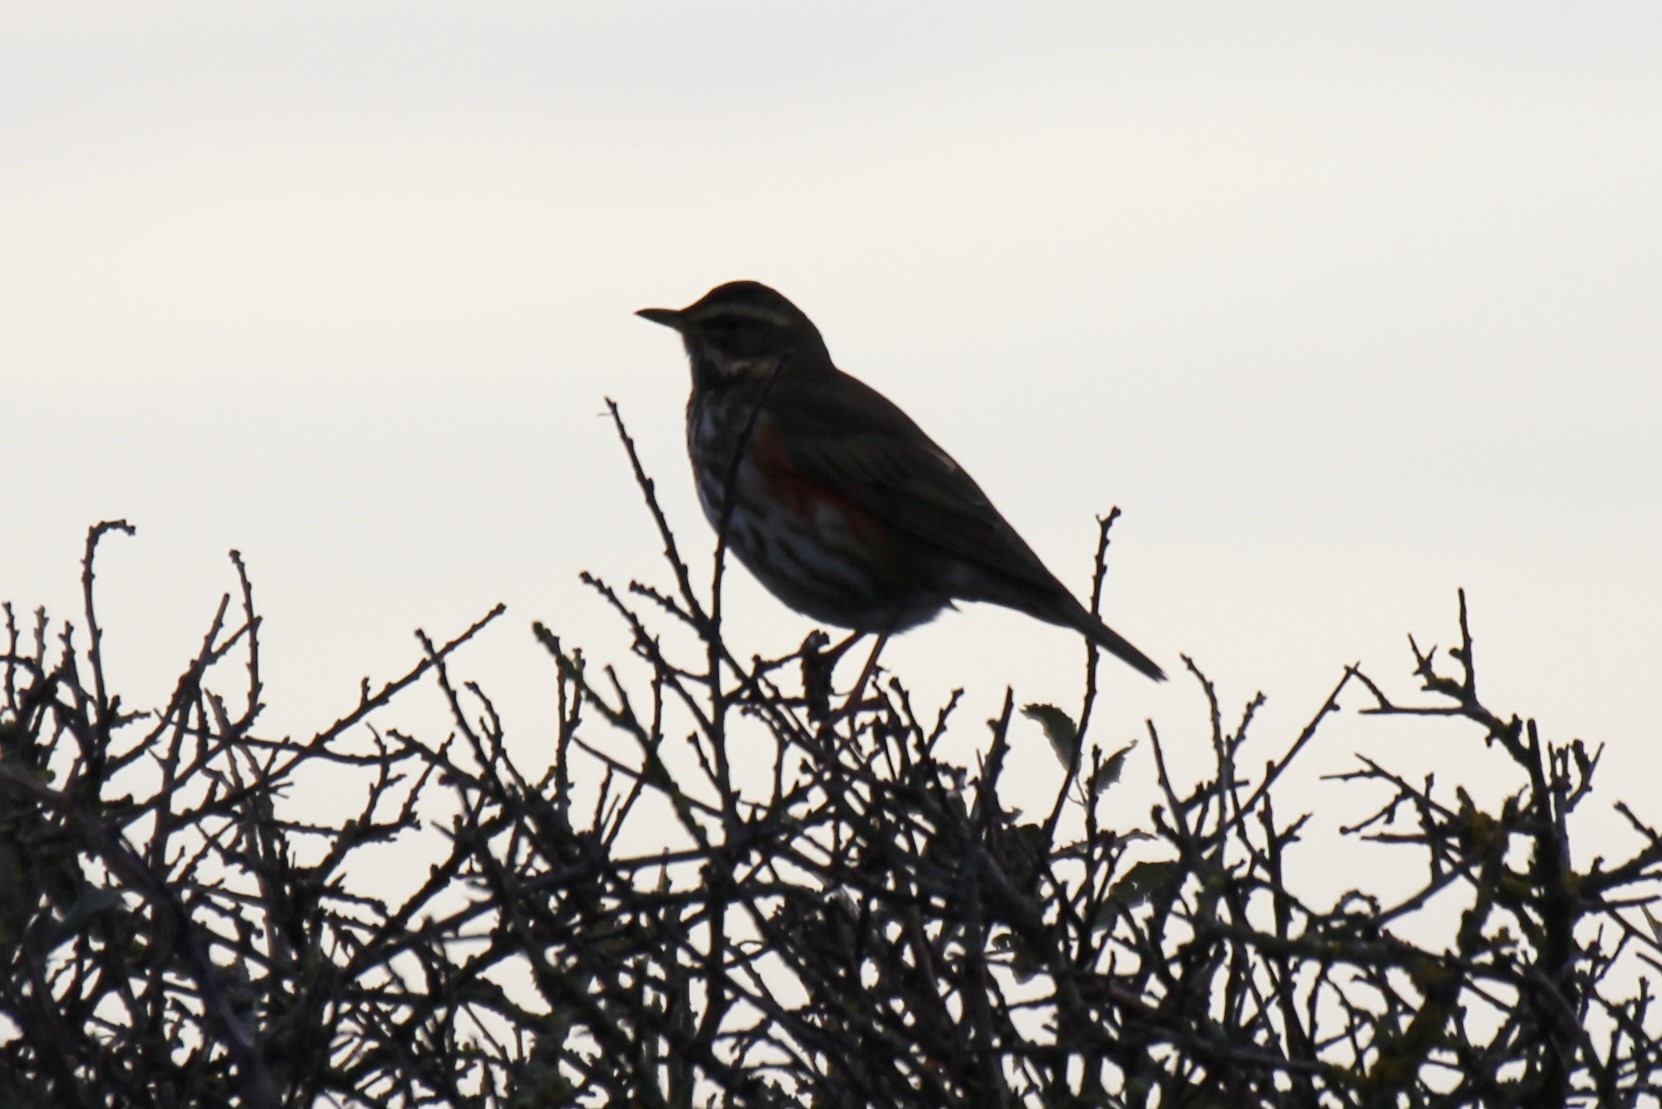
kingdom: Animalia
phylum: Chordata
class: Aves
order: Passeriformes
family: Turdidae
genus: Turdus
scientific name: Turdus iliacus
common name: Redwing
